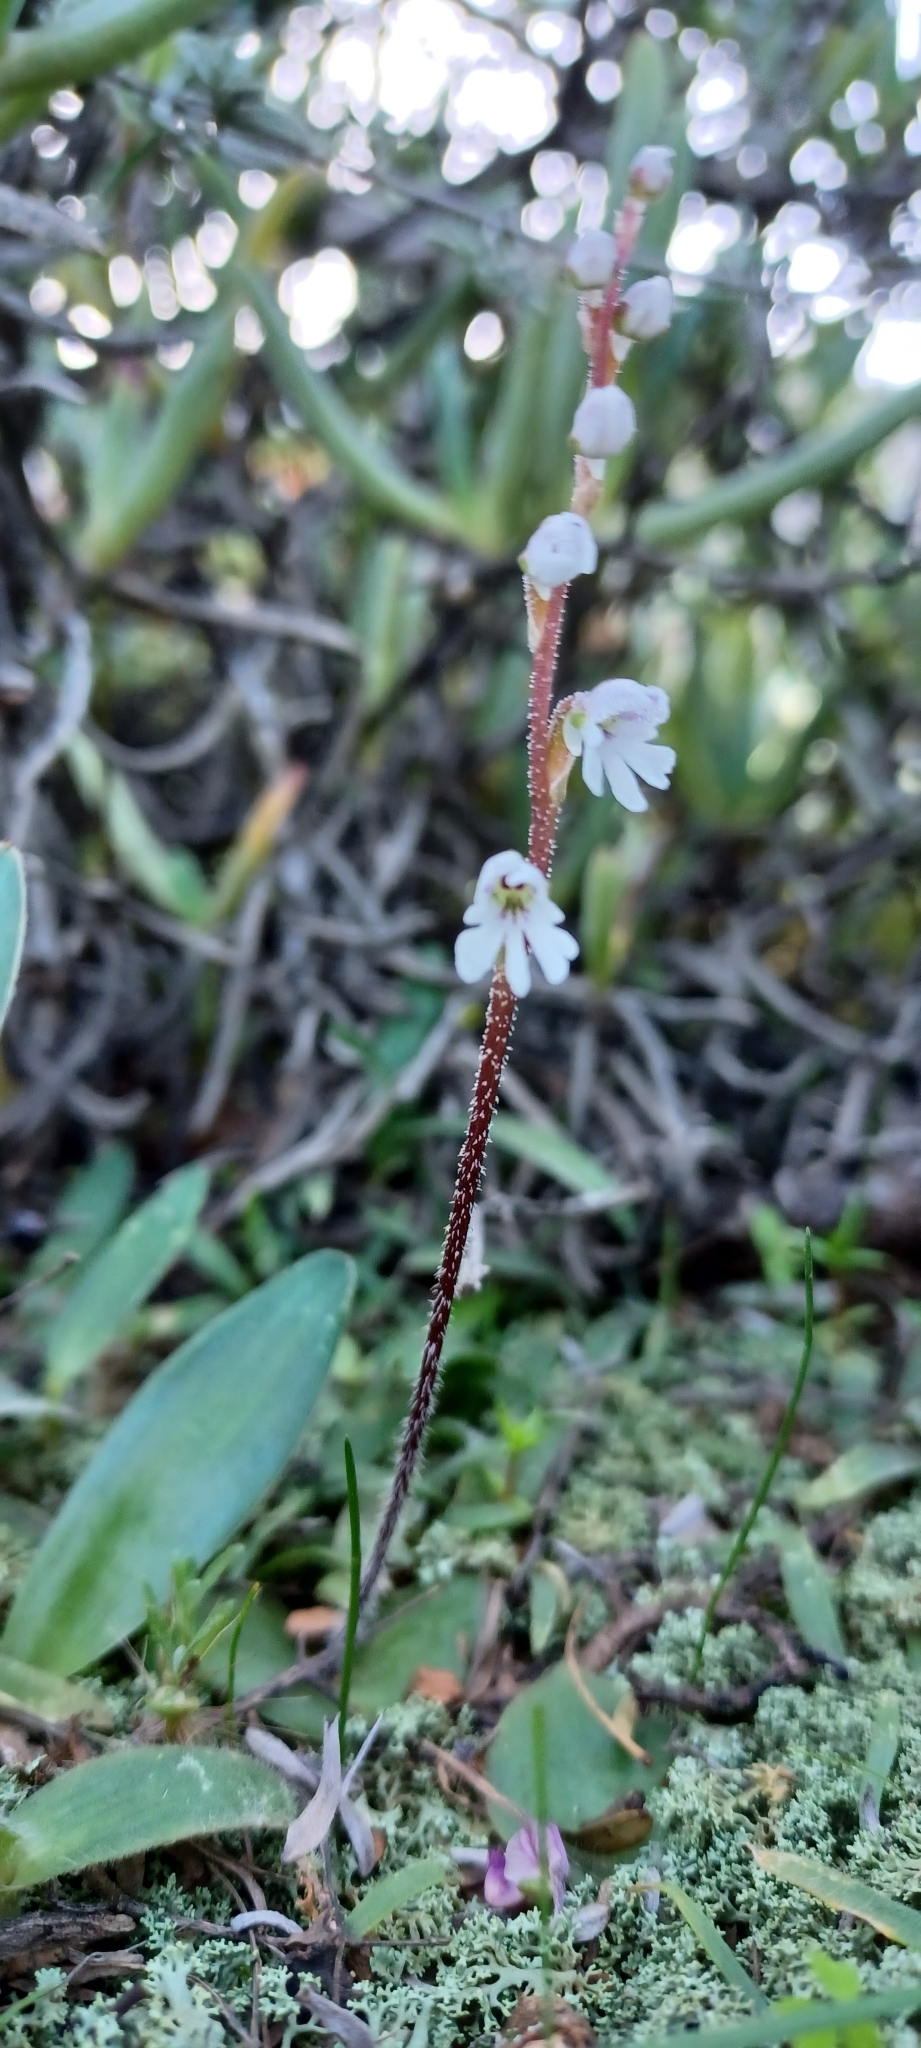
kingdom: Plantae
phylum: Tracheophyta
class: Liliopsida
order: Asparagales
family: Orchidaceae
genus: Holothrix
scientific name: Holothrix aspera
